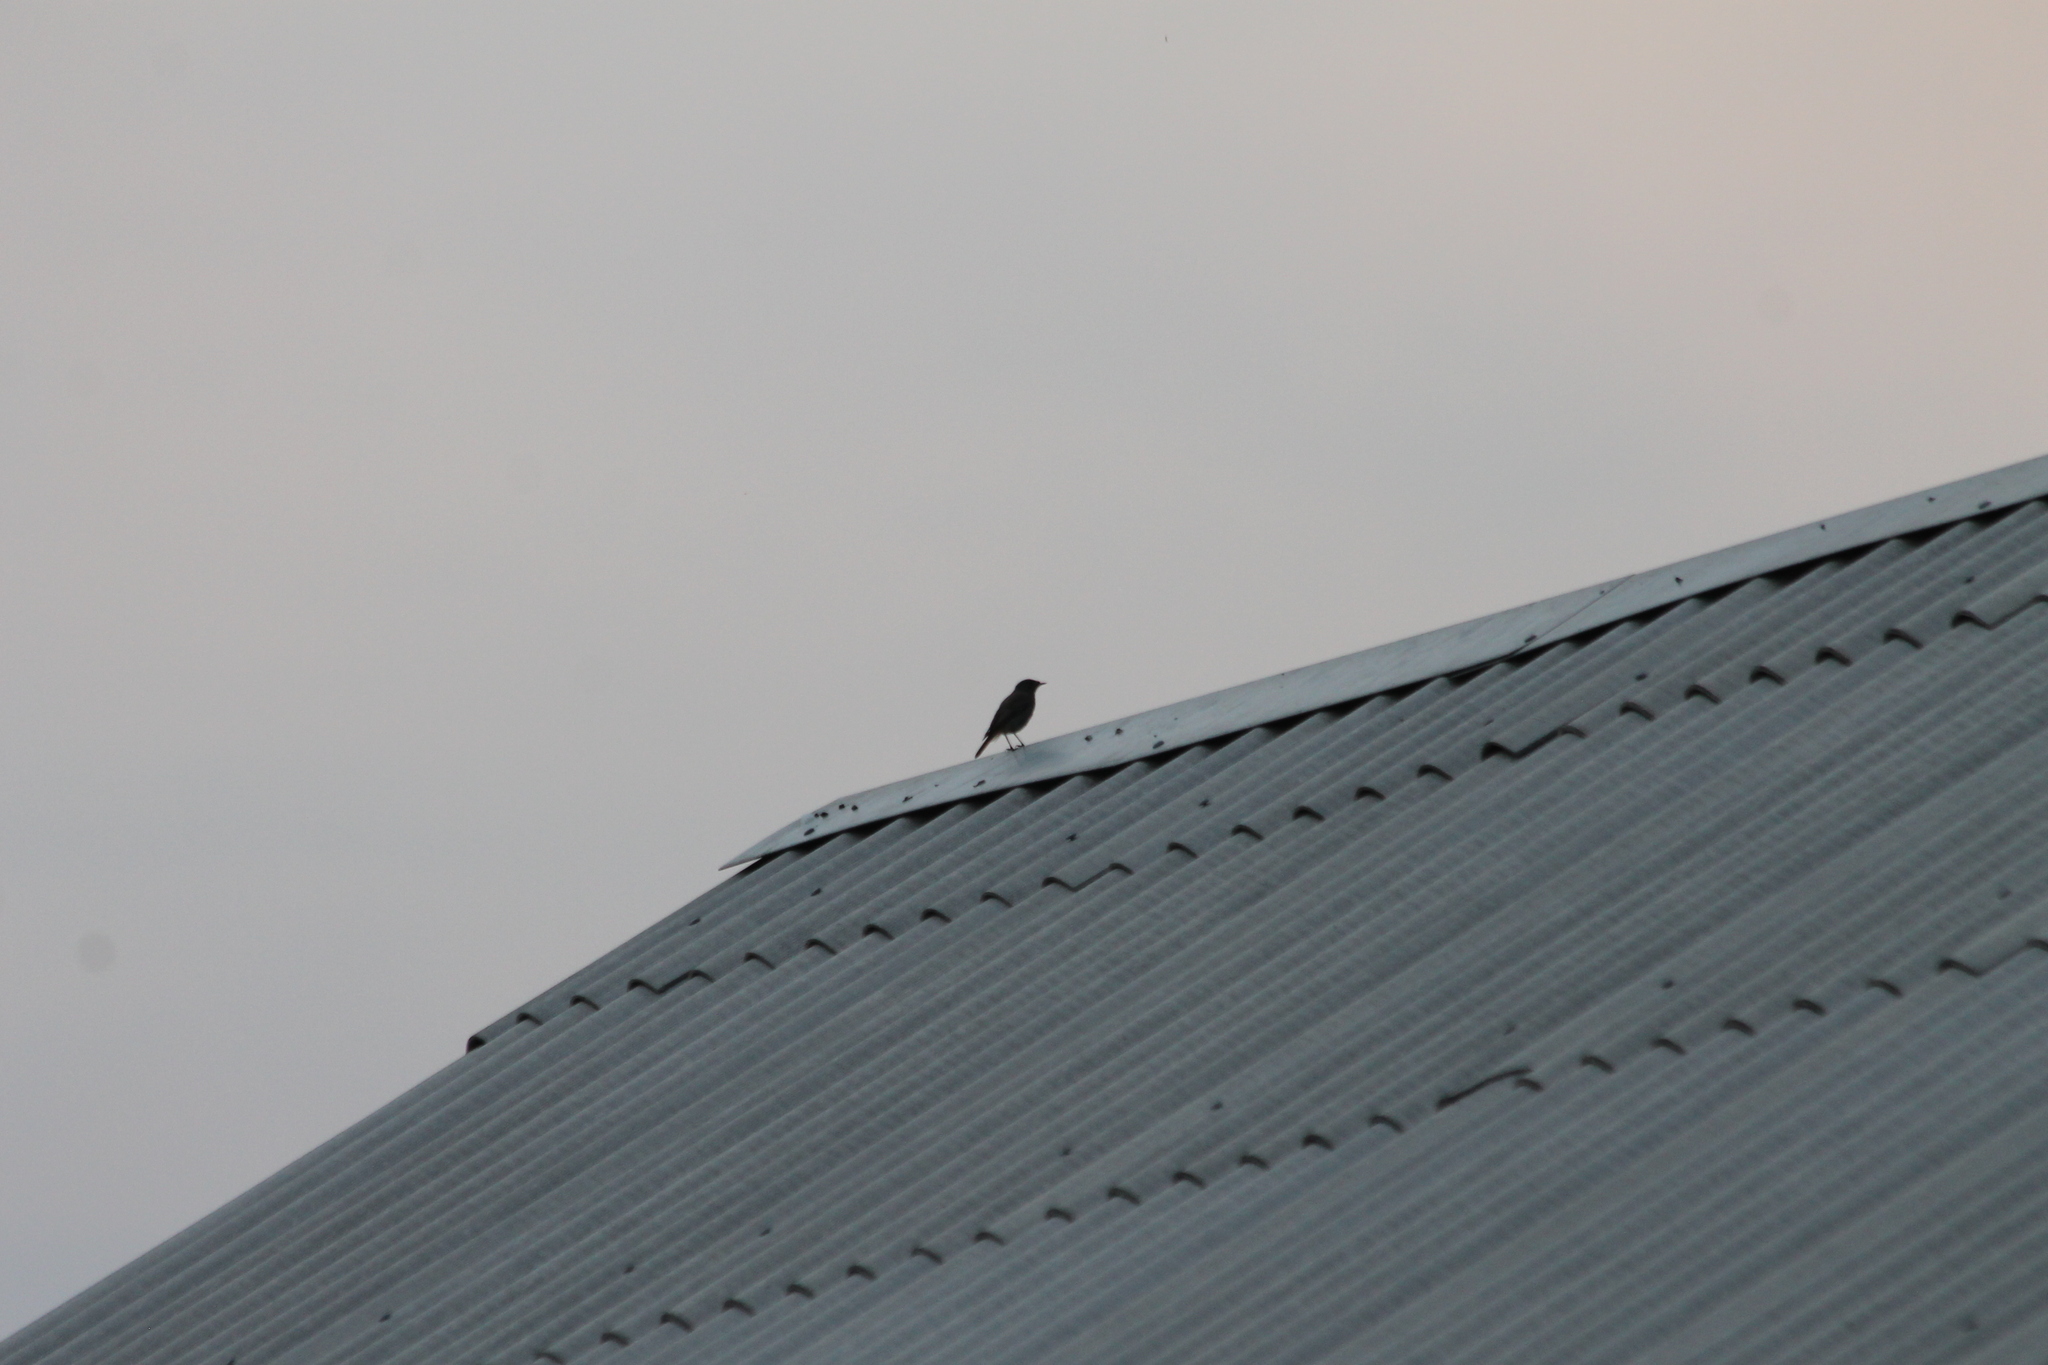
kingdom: Animalia
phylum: Chordata
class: Aves
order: Passeriformes
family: Muscicapidae
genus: Phoenicurus
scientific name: Phoenicurus ochruros
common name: Black redstart
